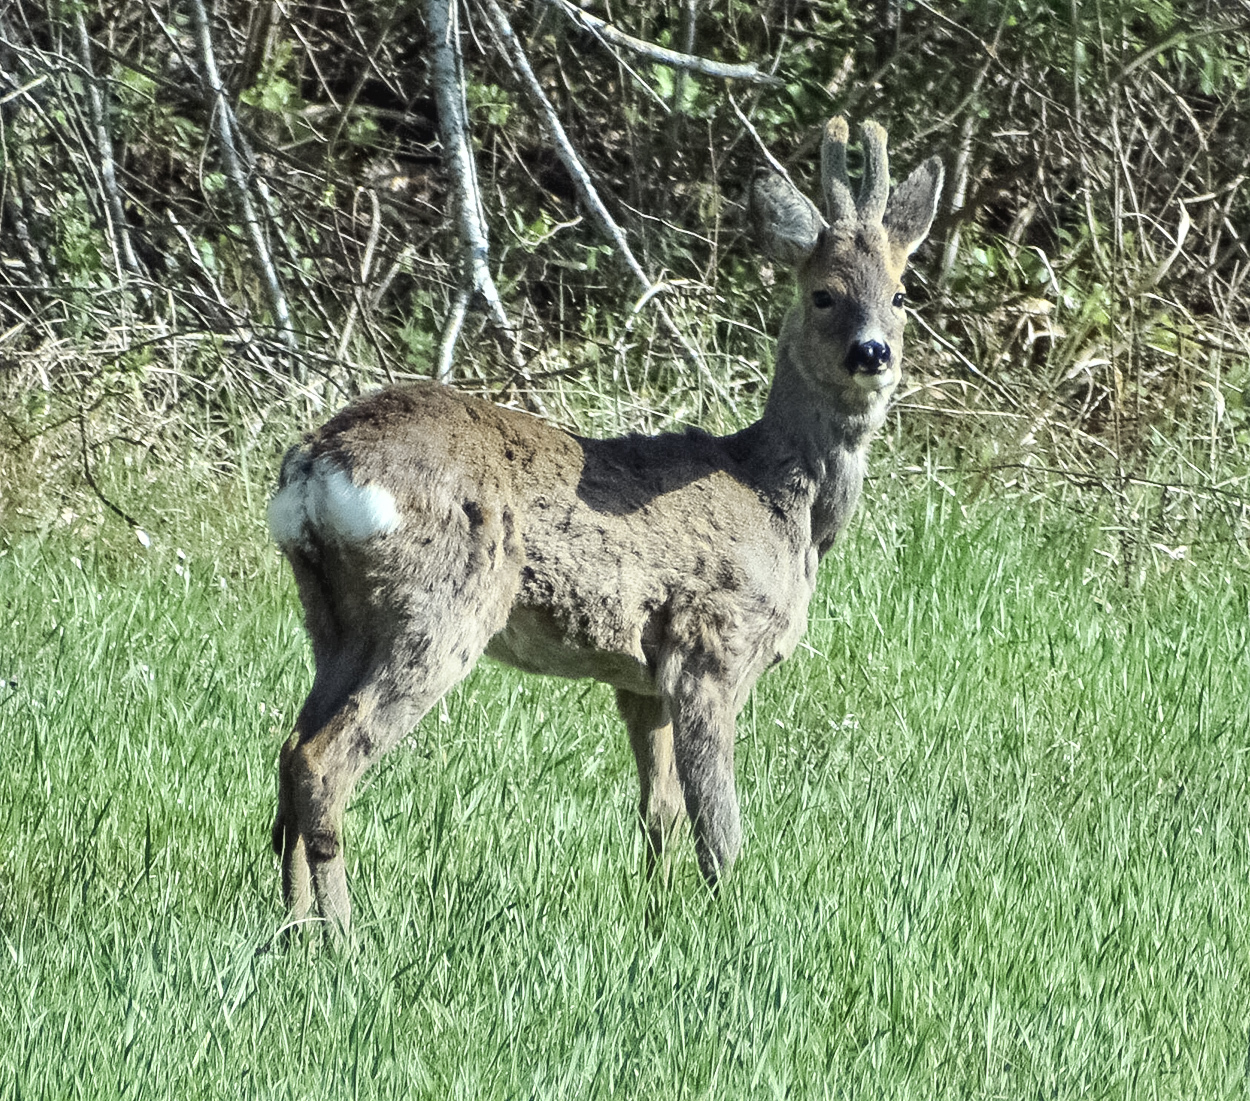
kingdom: Animalia
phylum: Chordata
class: Mammalia
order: Artiodactyla
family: Cervidae
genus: Capreolus
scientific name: Capreolus capreolus
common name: Western roe deer
